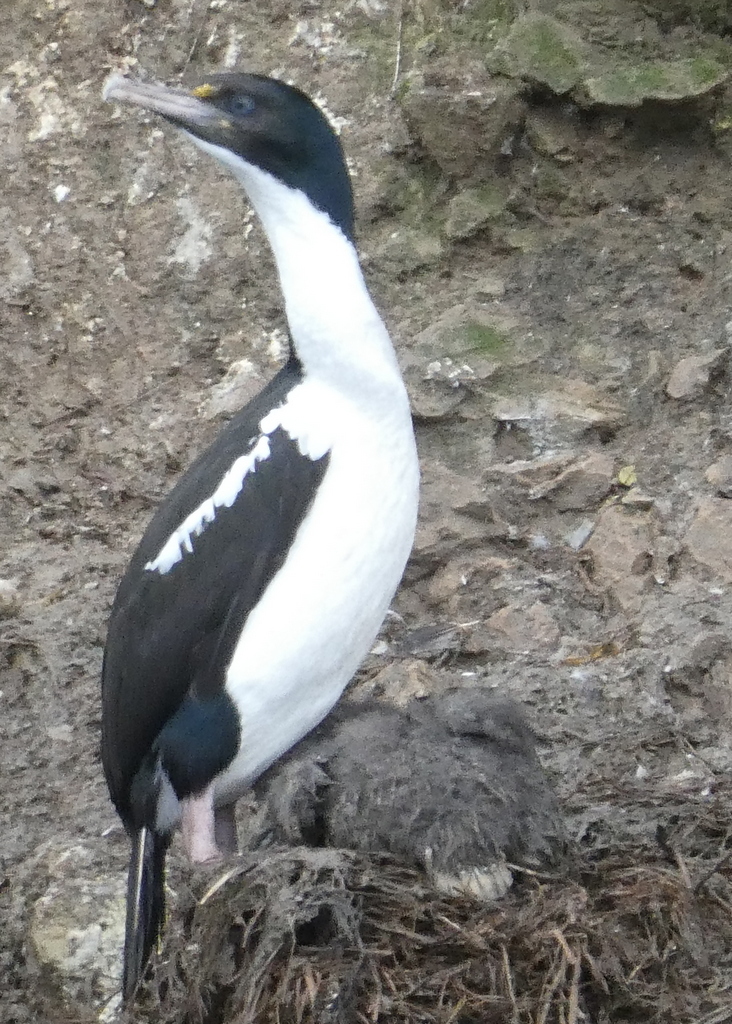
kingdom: Animalia
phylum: Chordata
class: Aves
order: Suliformes
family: Phalacrocoracidae
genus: Leucocarbo
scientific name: Leucocarbo carunculatus
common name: Rough-faced shag
